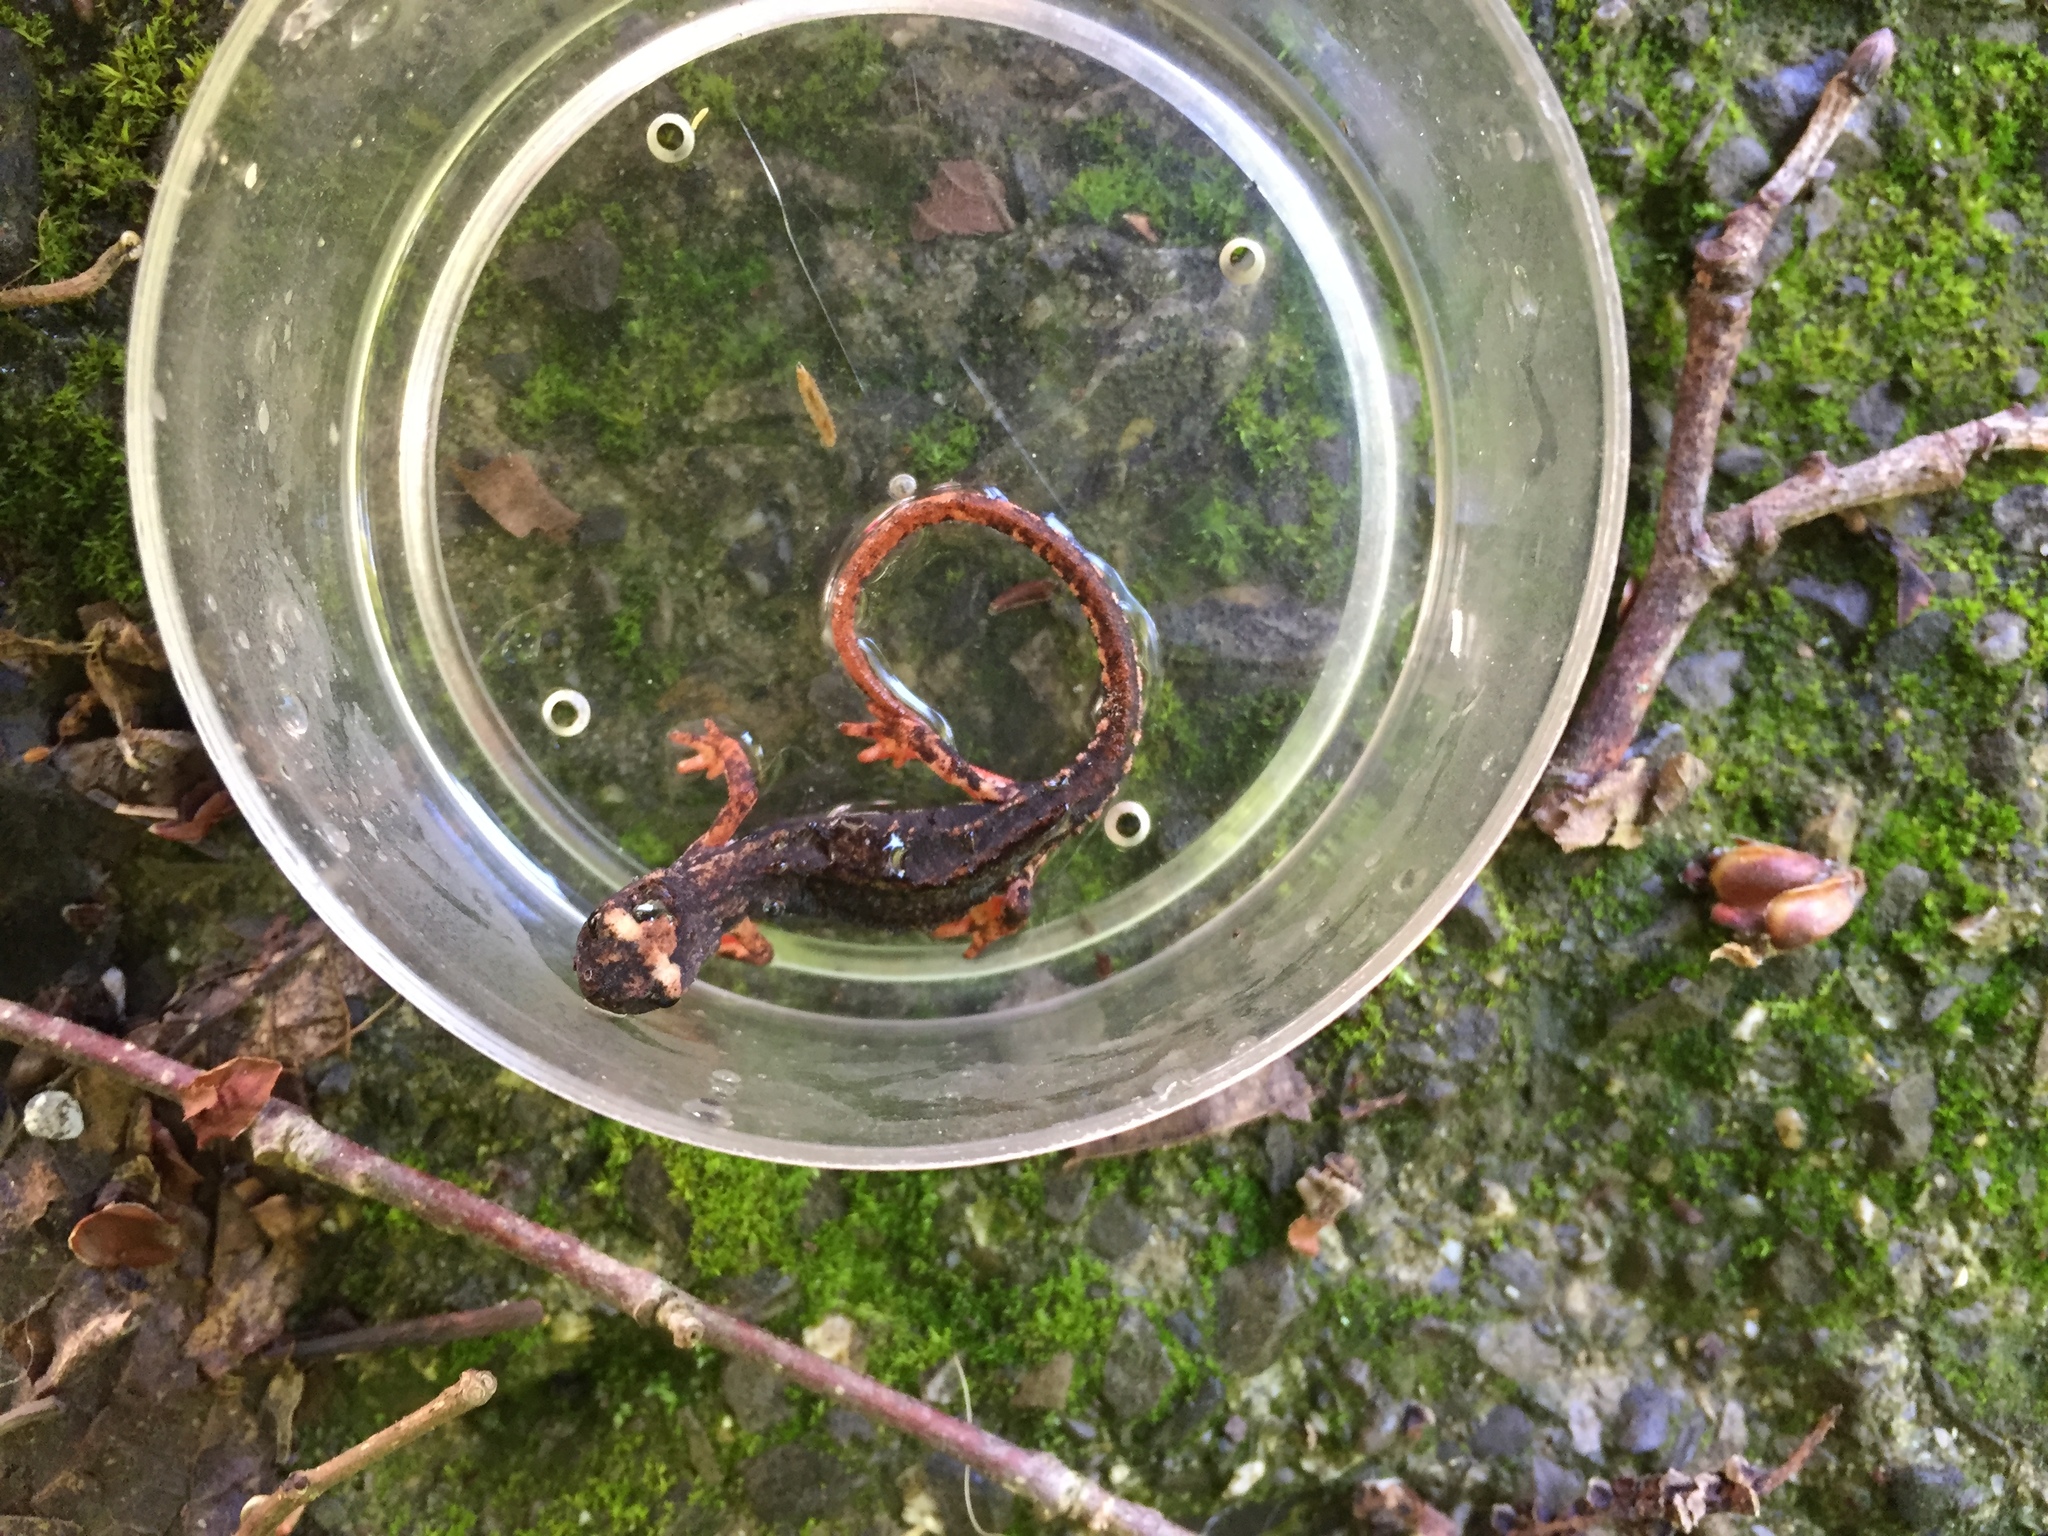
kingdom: Animalia
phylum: Chordata
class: Amphibia
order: Caudata
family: Salamandridae
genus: Salamandrina
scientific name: Salamandrina perspicillata
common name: Northern spectacled salamander
